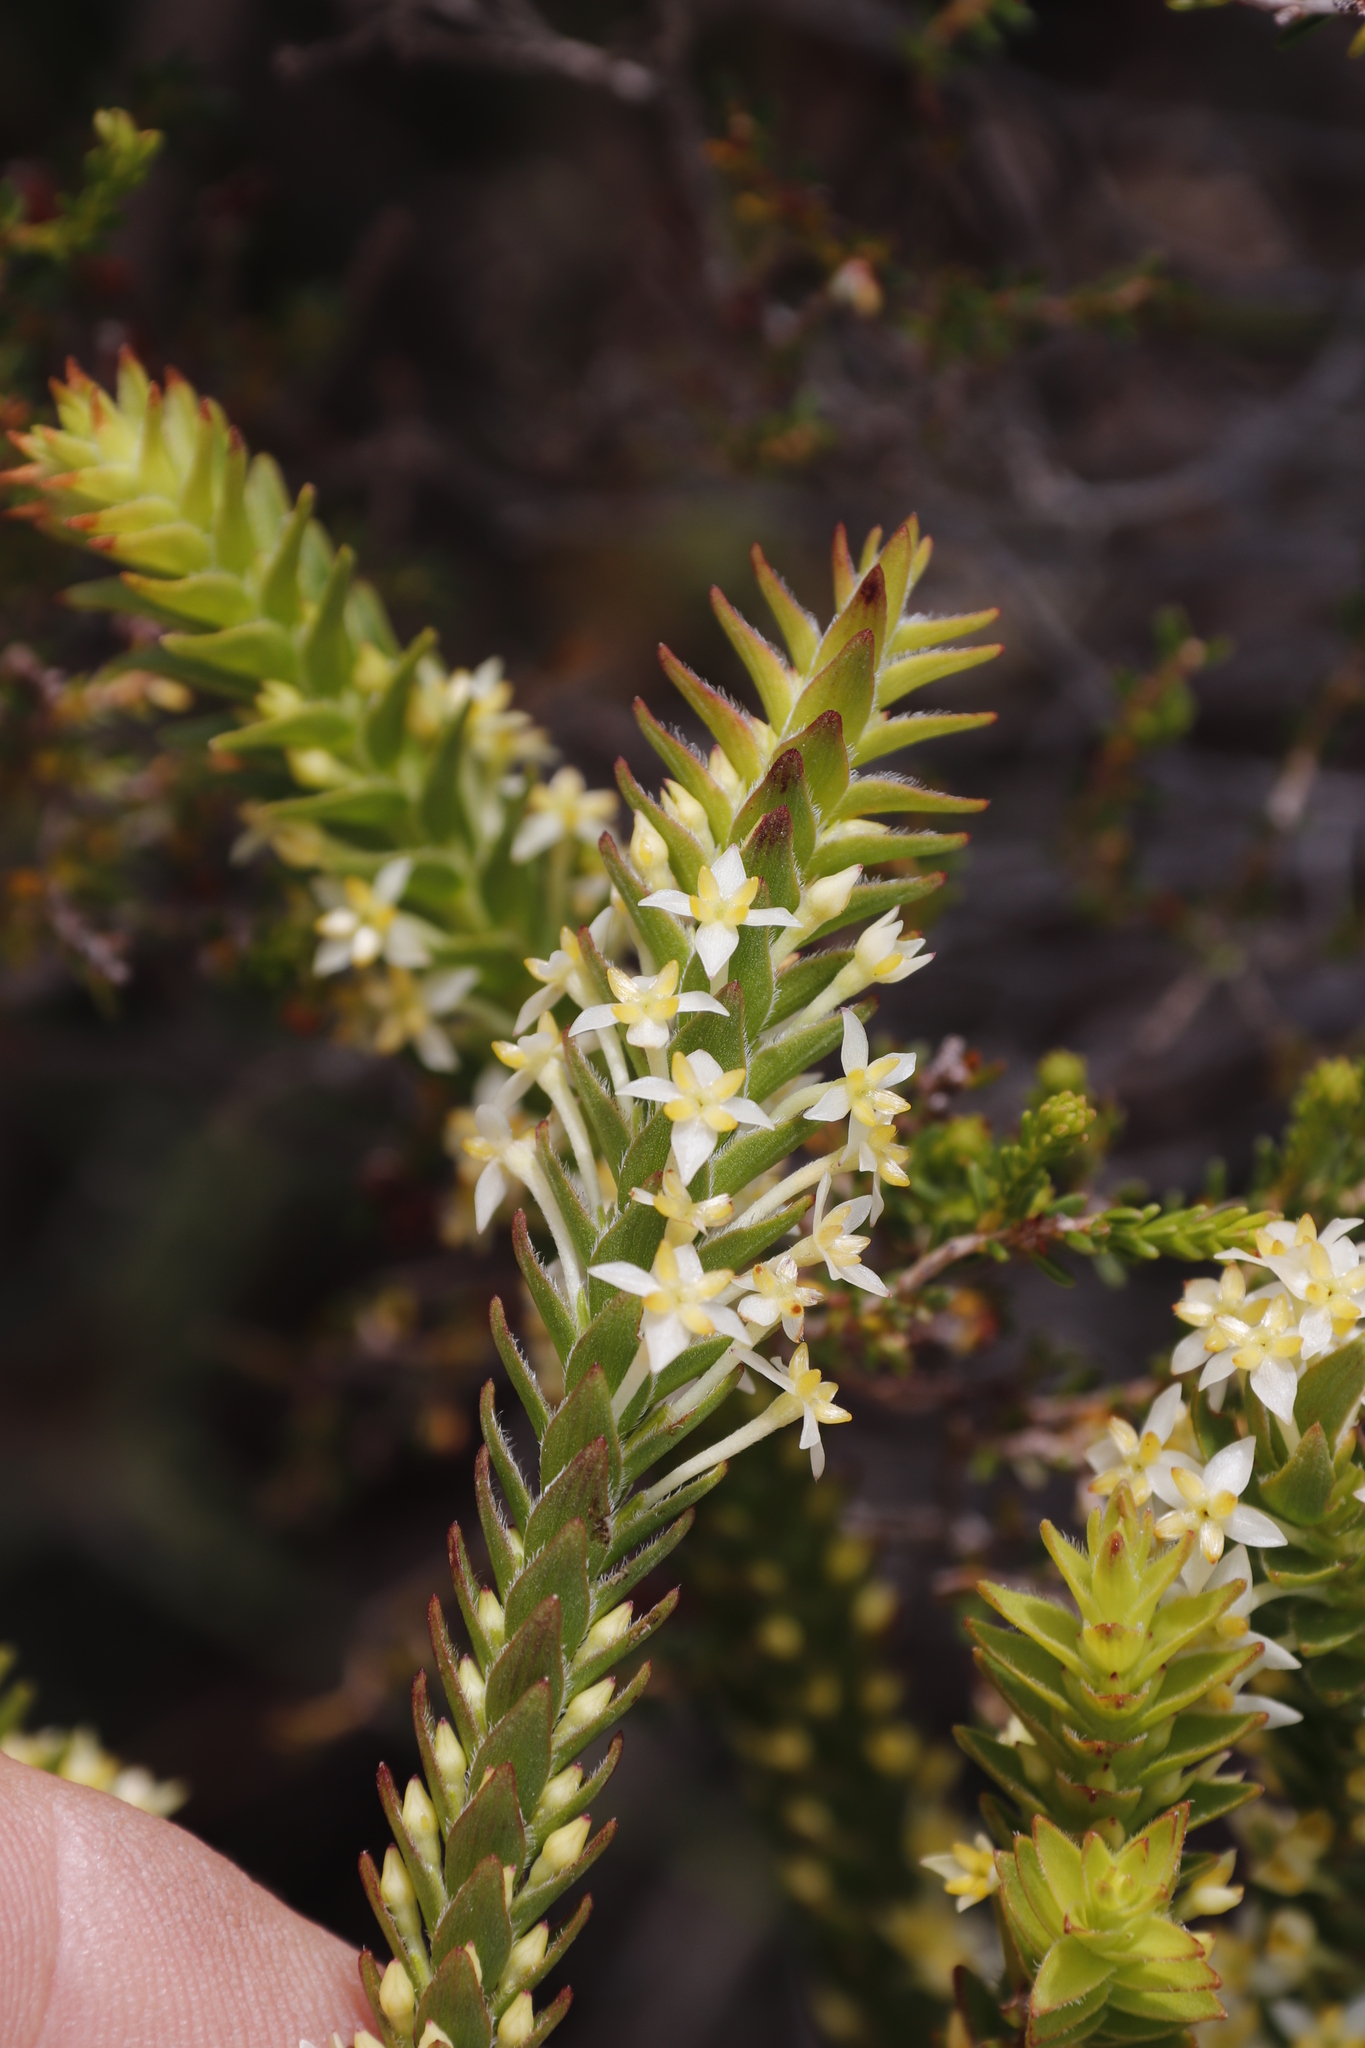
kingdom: Plantae
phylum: Tracheophyta
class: Magnoliopsida
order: Malvales
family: Thymelaeaceae
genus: Struthiola
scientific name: Struthiola striata
